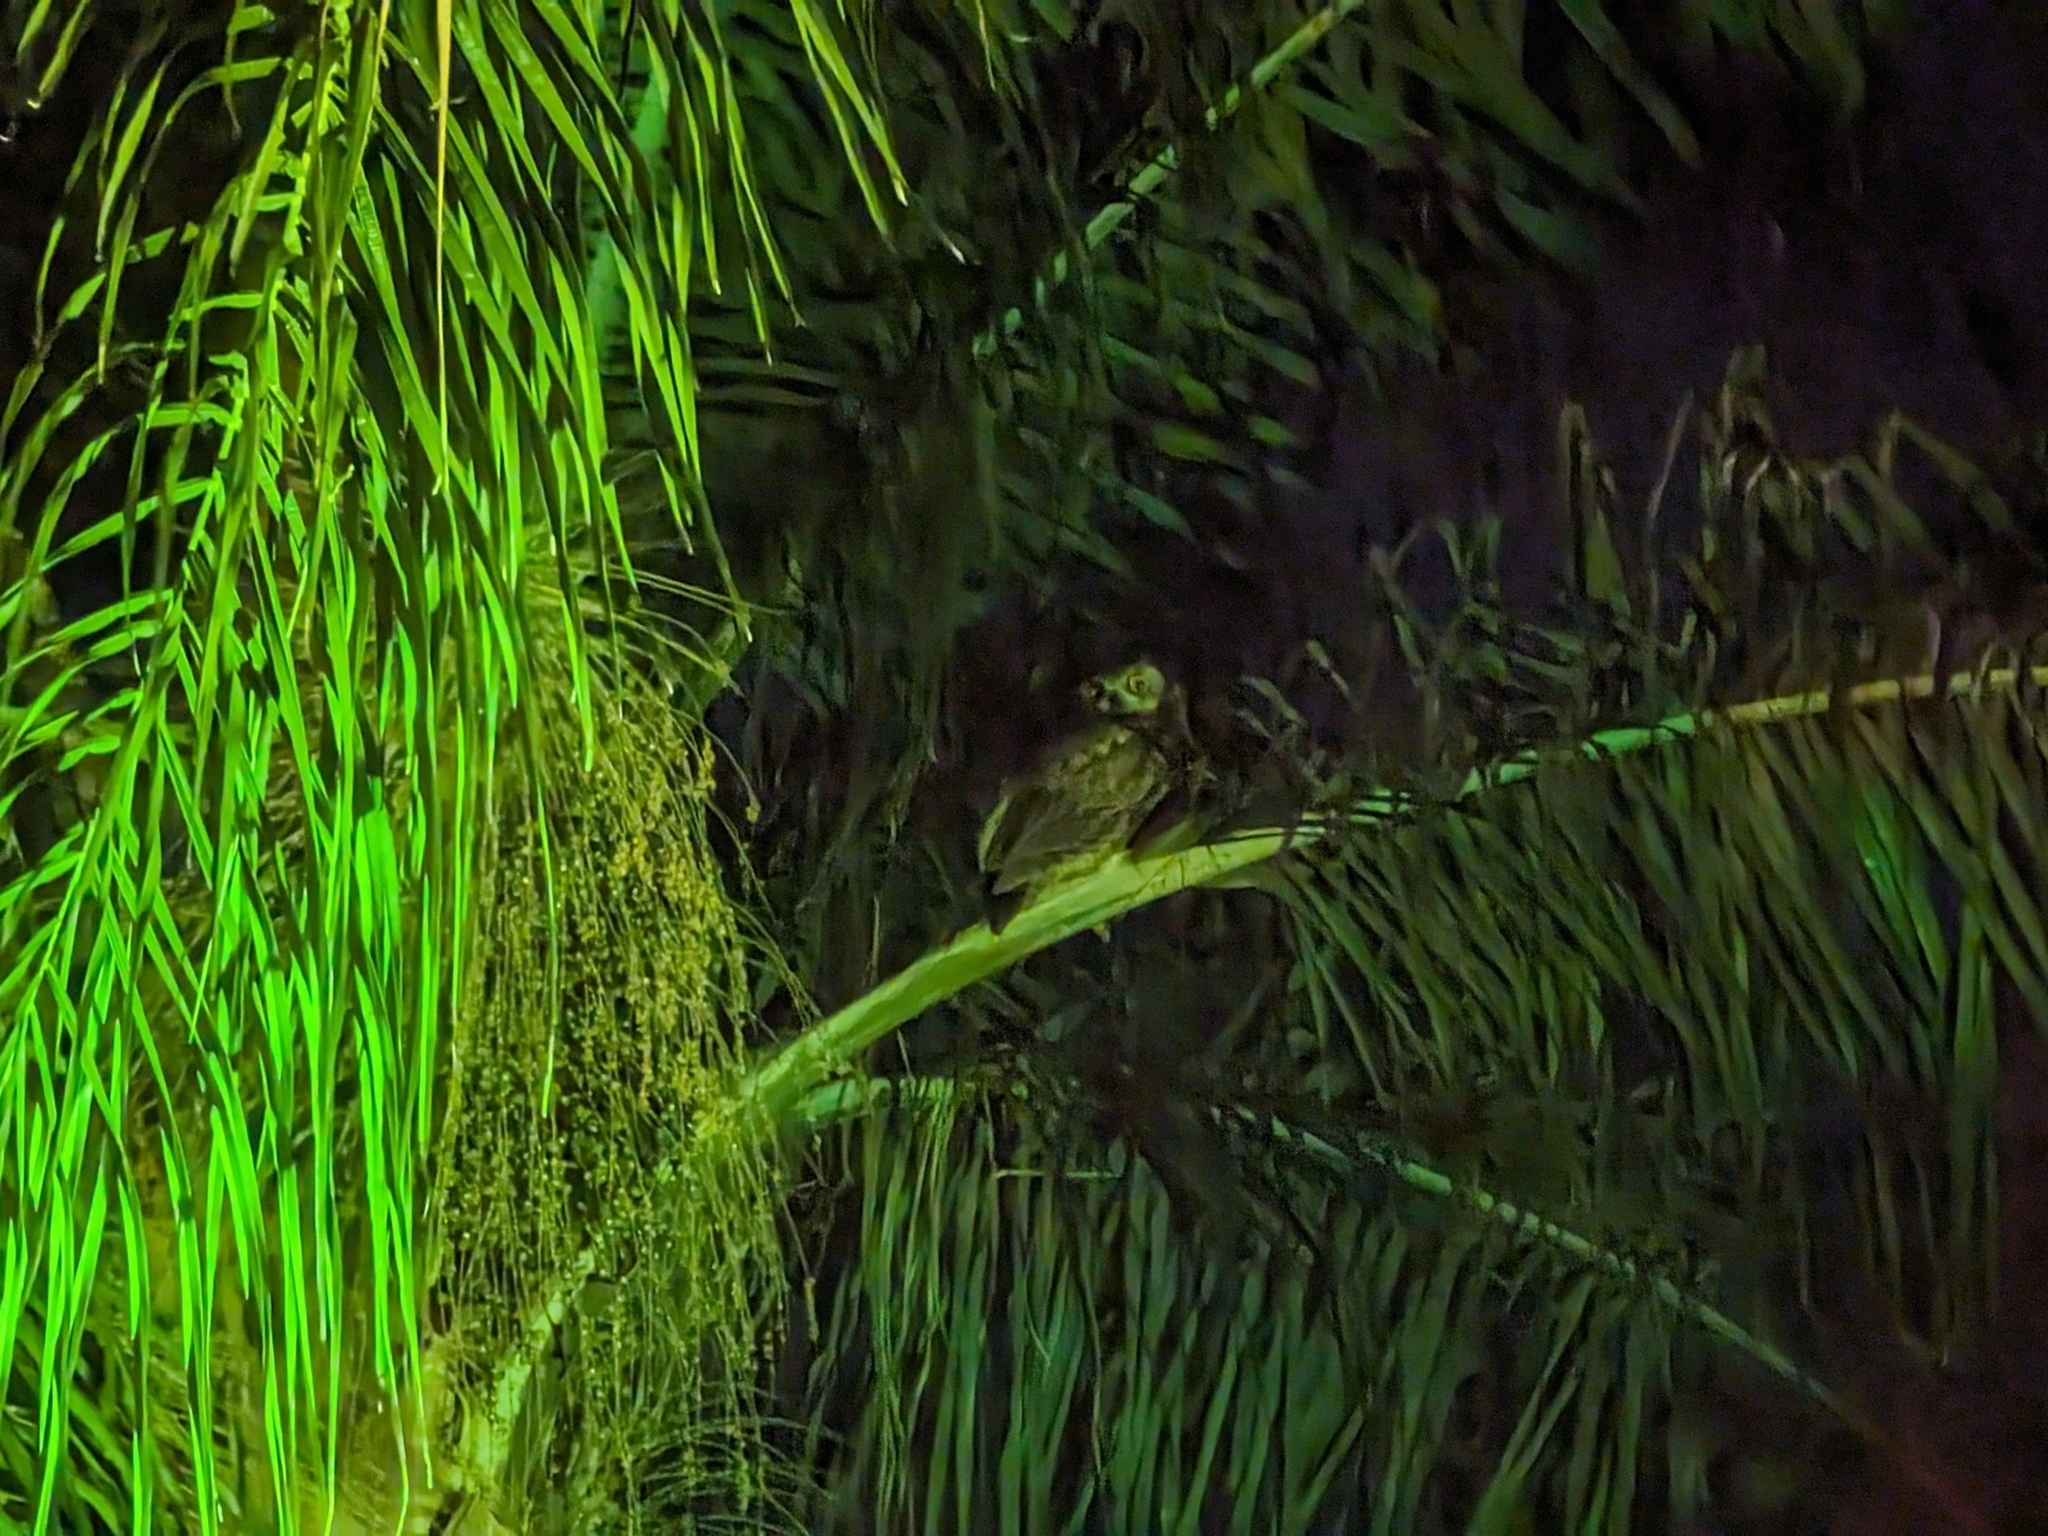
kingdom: Animalia
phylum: Chordata
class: Aves
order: Strigiformes
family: Strigidae
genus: Bubo
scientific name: Bubo virginianus
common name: Great horned owl
